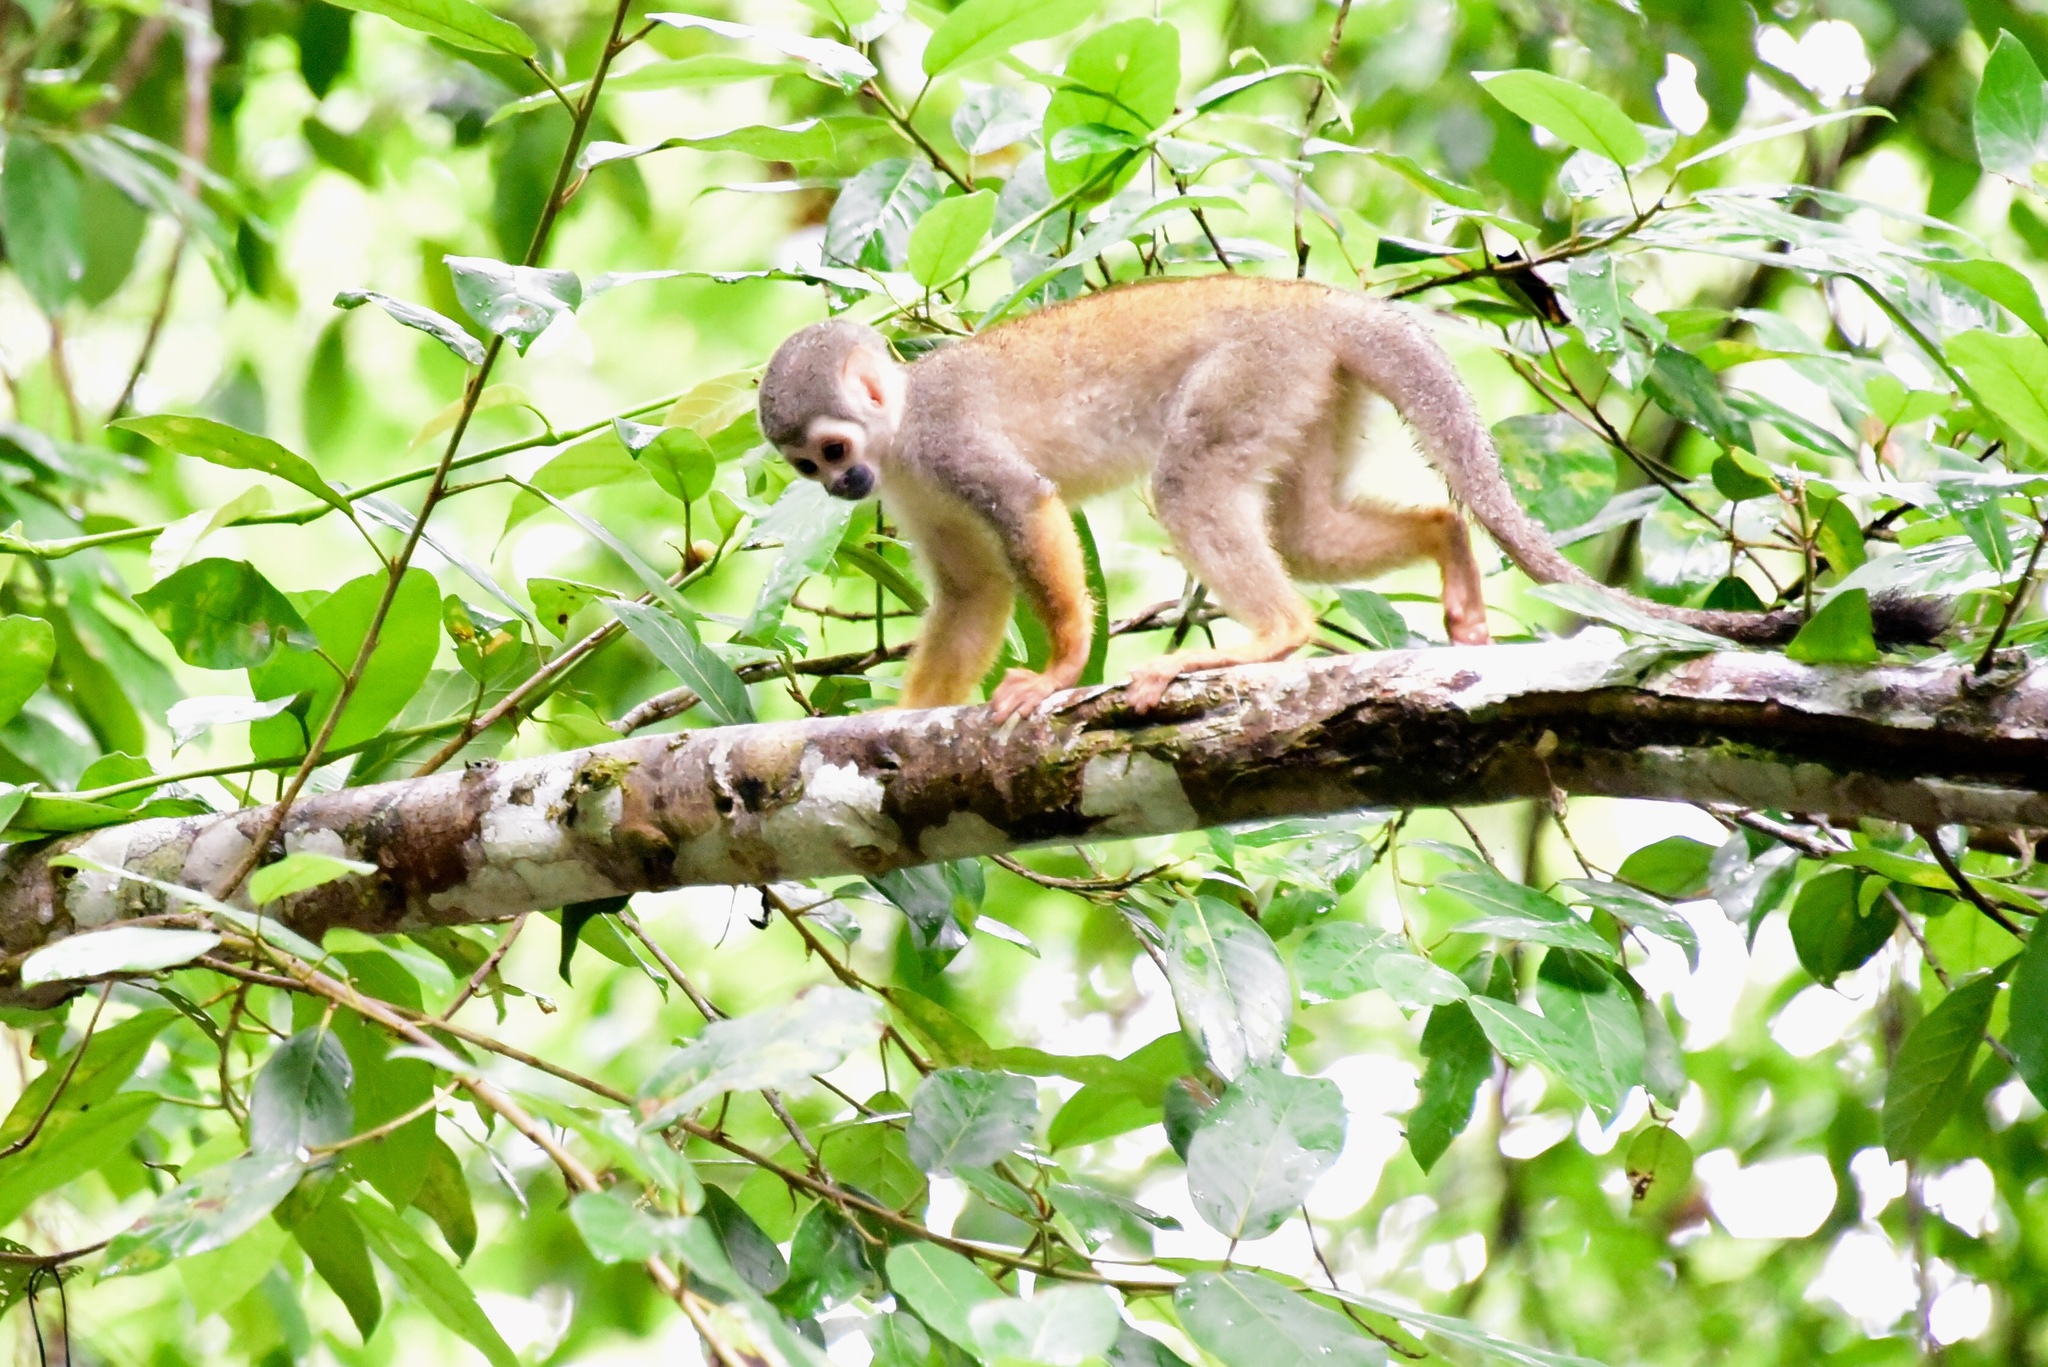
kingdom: Animalia
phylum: Chordata
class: Mammalia
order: Primates
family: Cebidae
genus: Saimiri
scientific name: Saimiri cassiquiarensis
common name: Humboldt’s squirrel monkey
